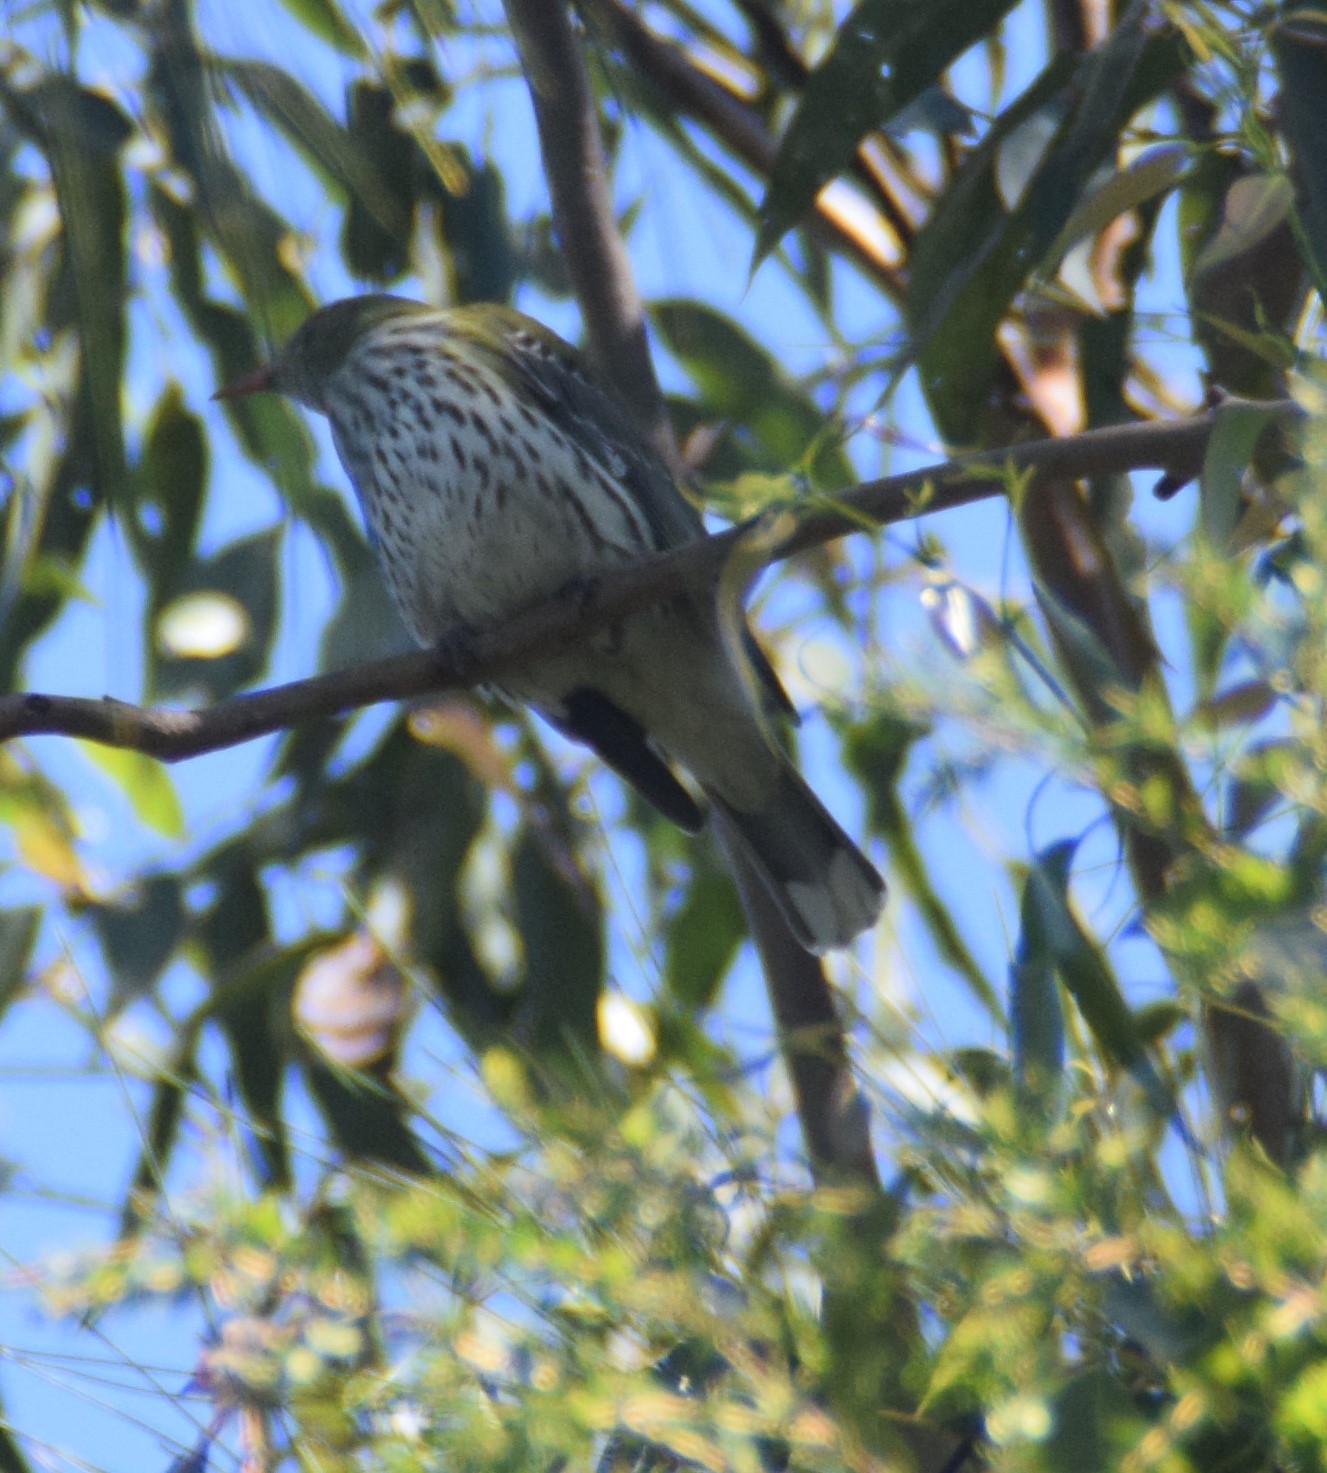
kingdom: Animalia
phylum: Chordata
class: Aves
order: Passeriformes
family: Oriolidae
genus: Oriolus
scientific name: Oriolus sagittatus
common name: Olive-backed oriole
